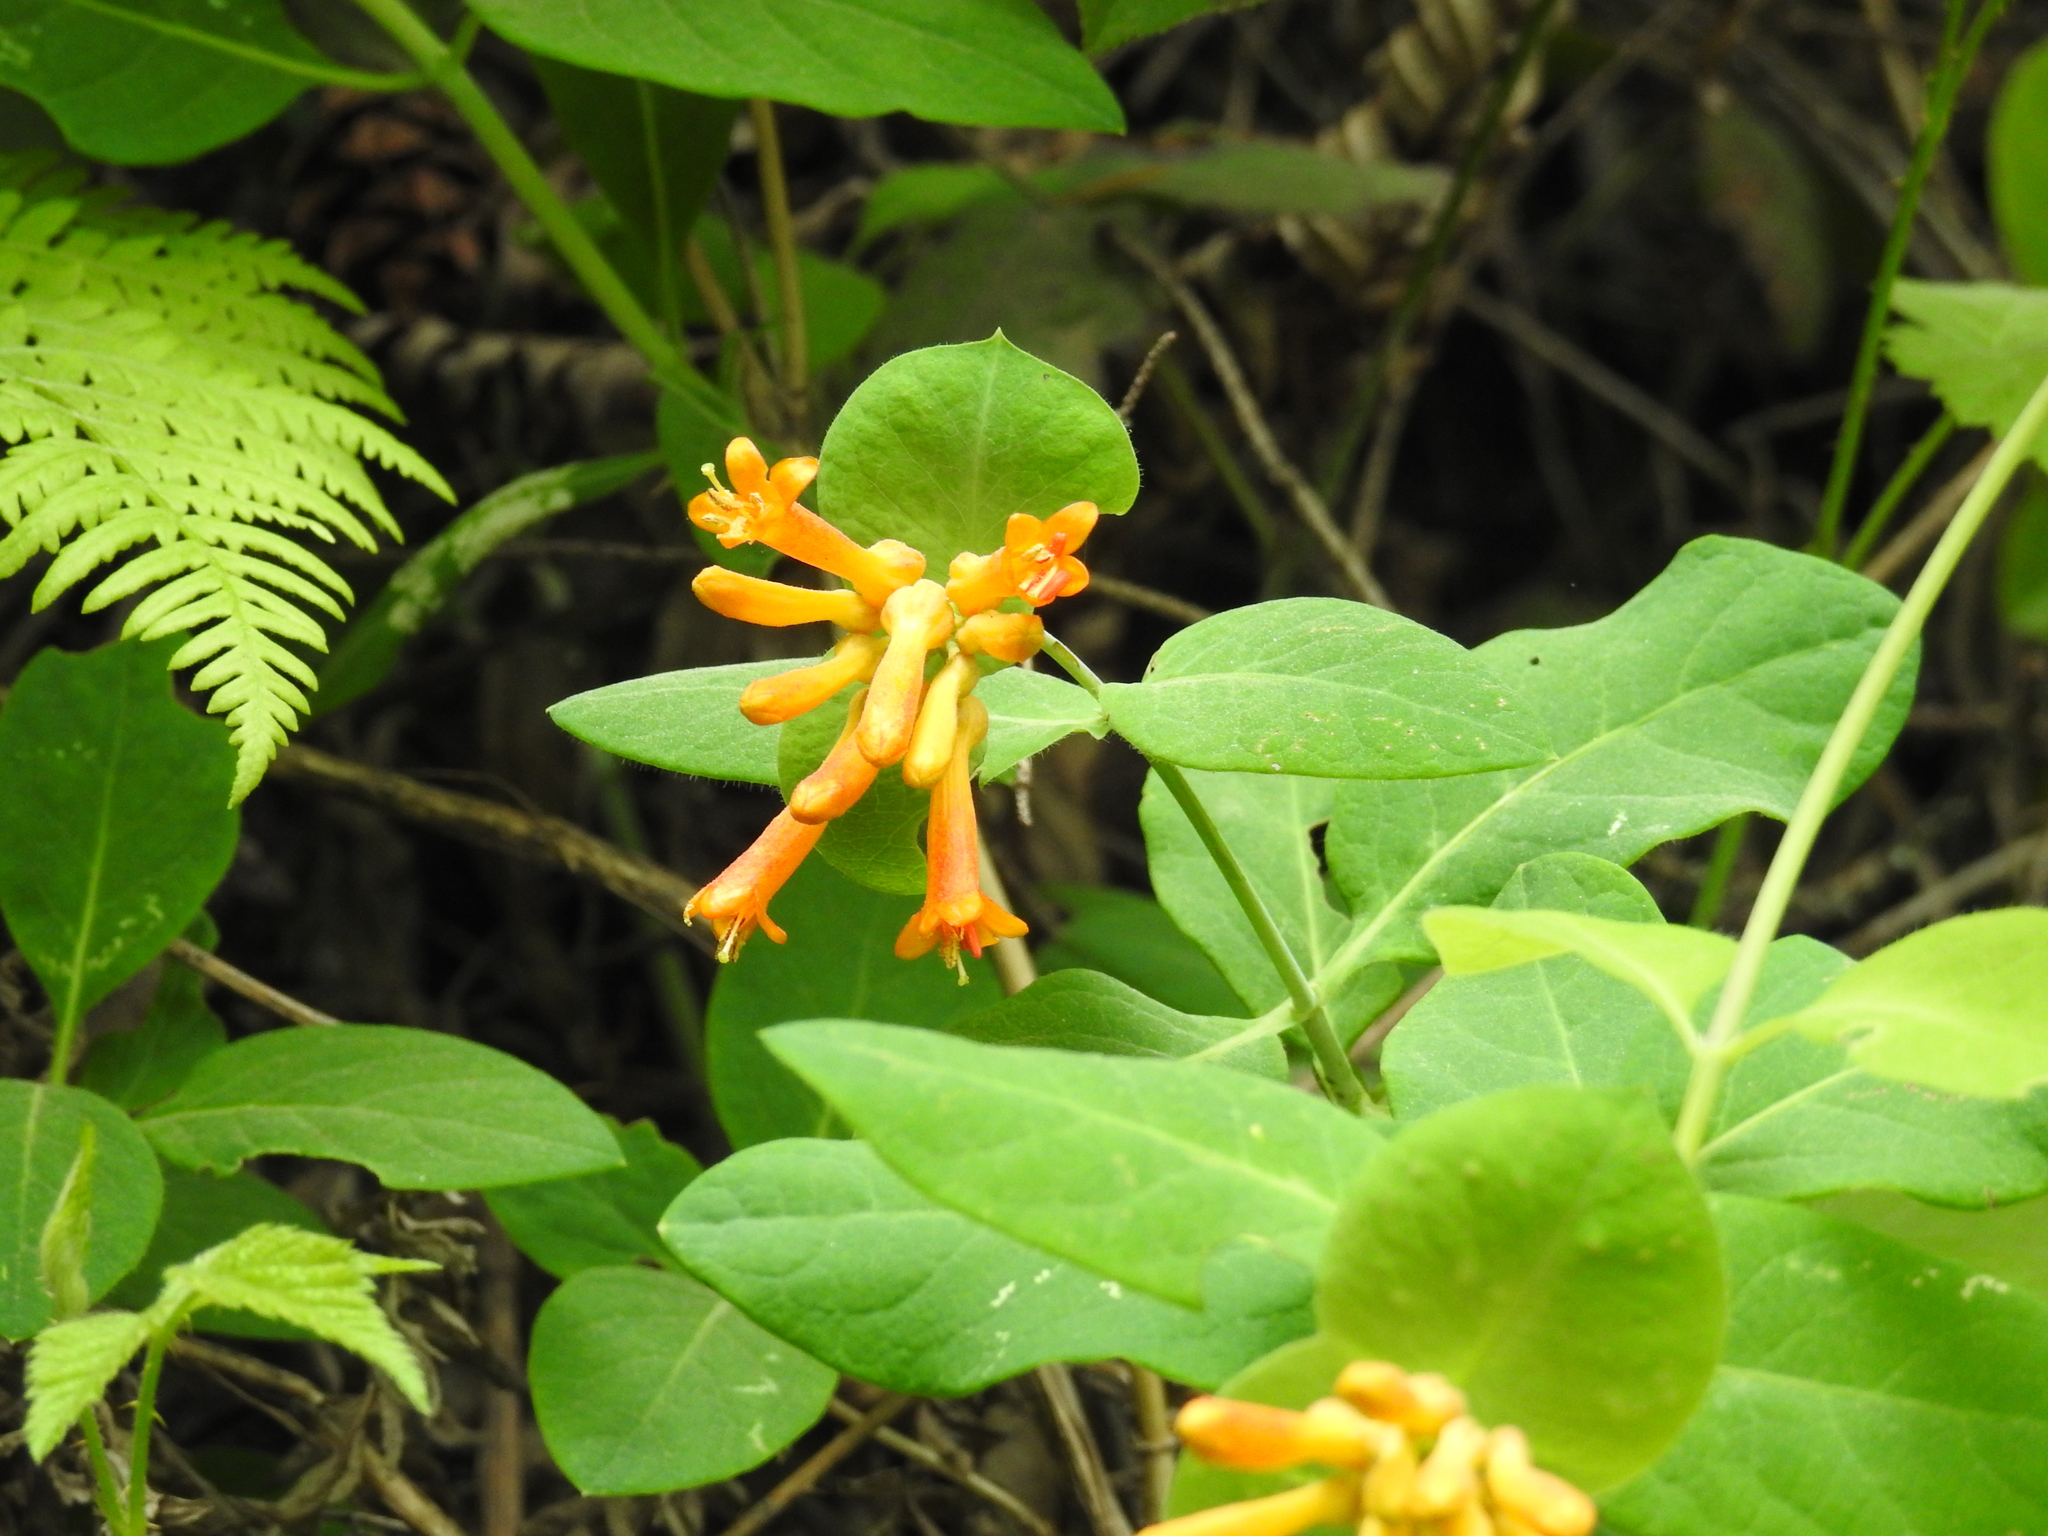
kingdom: Plantae
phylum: Tracheophyta
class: Magnoliopsida
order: Dipsacales
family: Caprifoliaceae
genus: Lonicera
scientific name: Lonicera ciliosa
